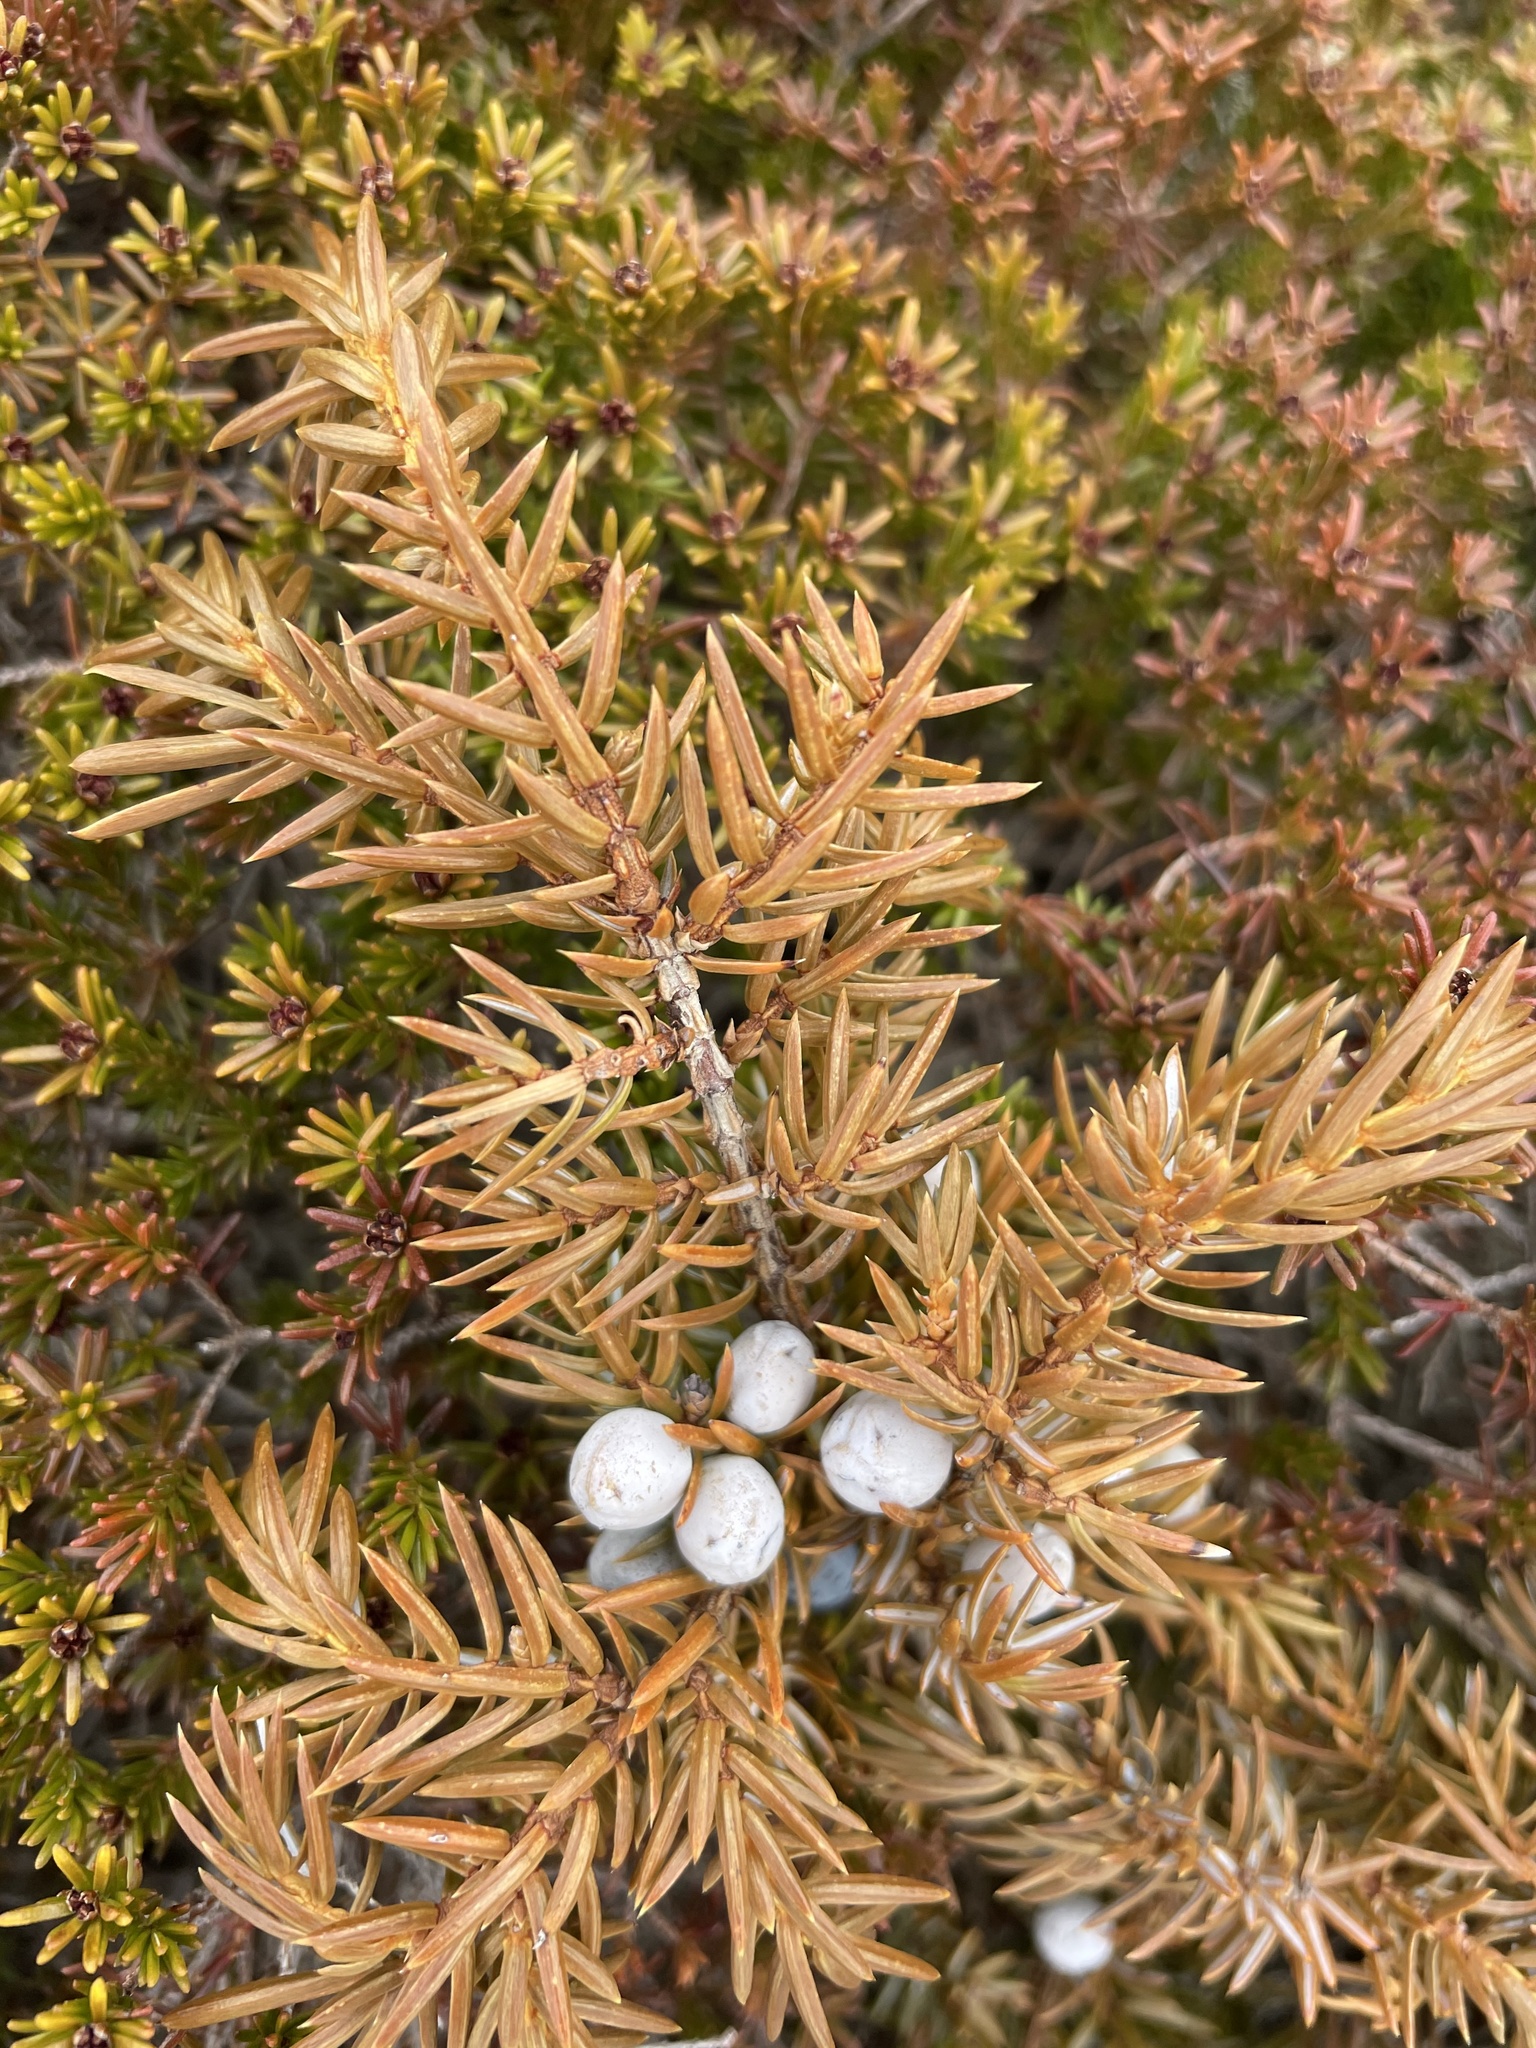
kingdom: Plantae
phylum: Tracheophyta
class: Pinopsida
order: Pinales
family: Cupressaceae
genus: Juniperus
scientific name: Juniperus communis
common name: Common juniper
